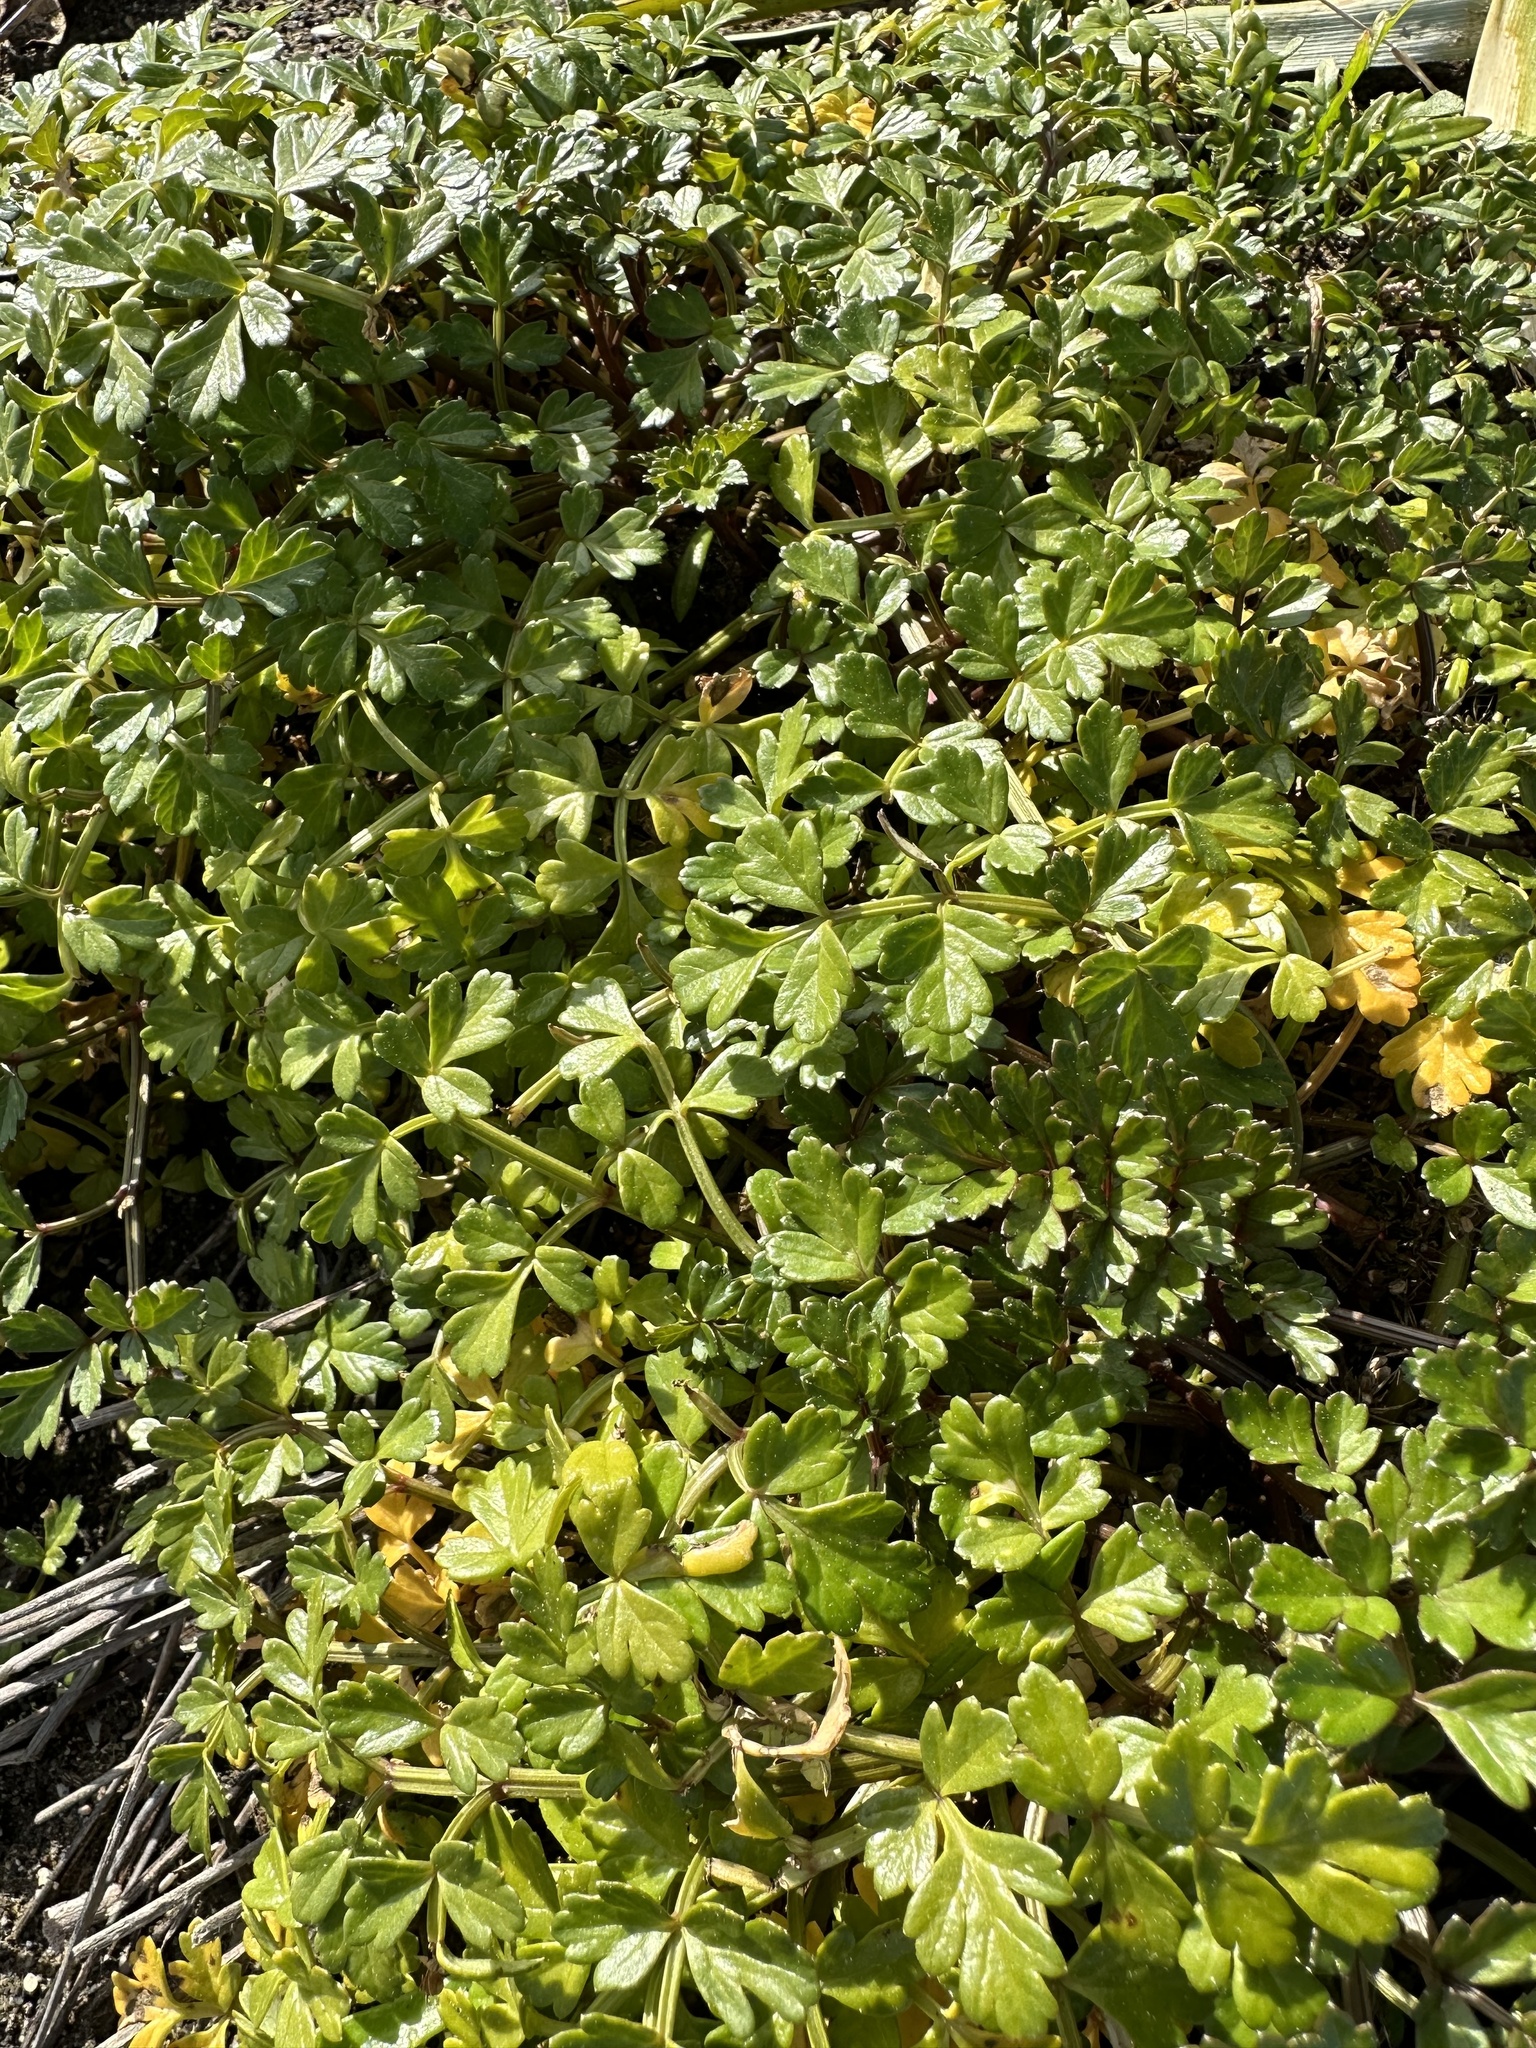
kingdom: Plantae
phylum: Tracheophyta
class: Magnoliopsida
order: Apiales
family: Apiaceae
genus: Apium
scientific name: Apium prostratum
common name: Prostrate marshwort
